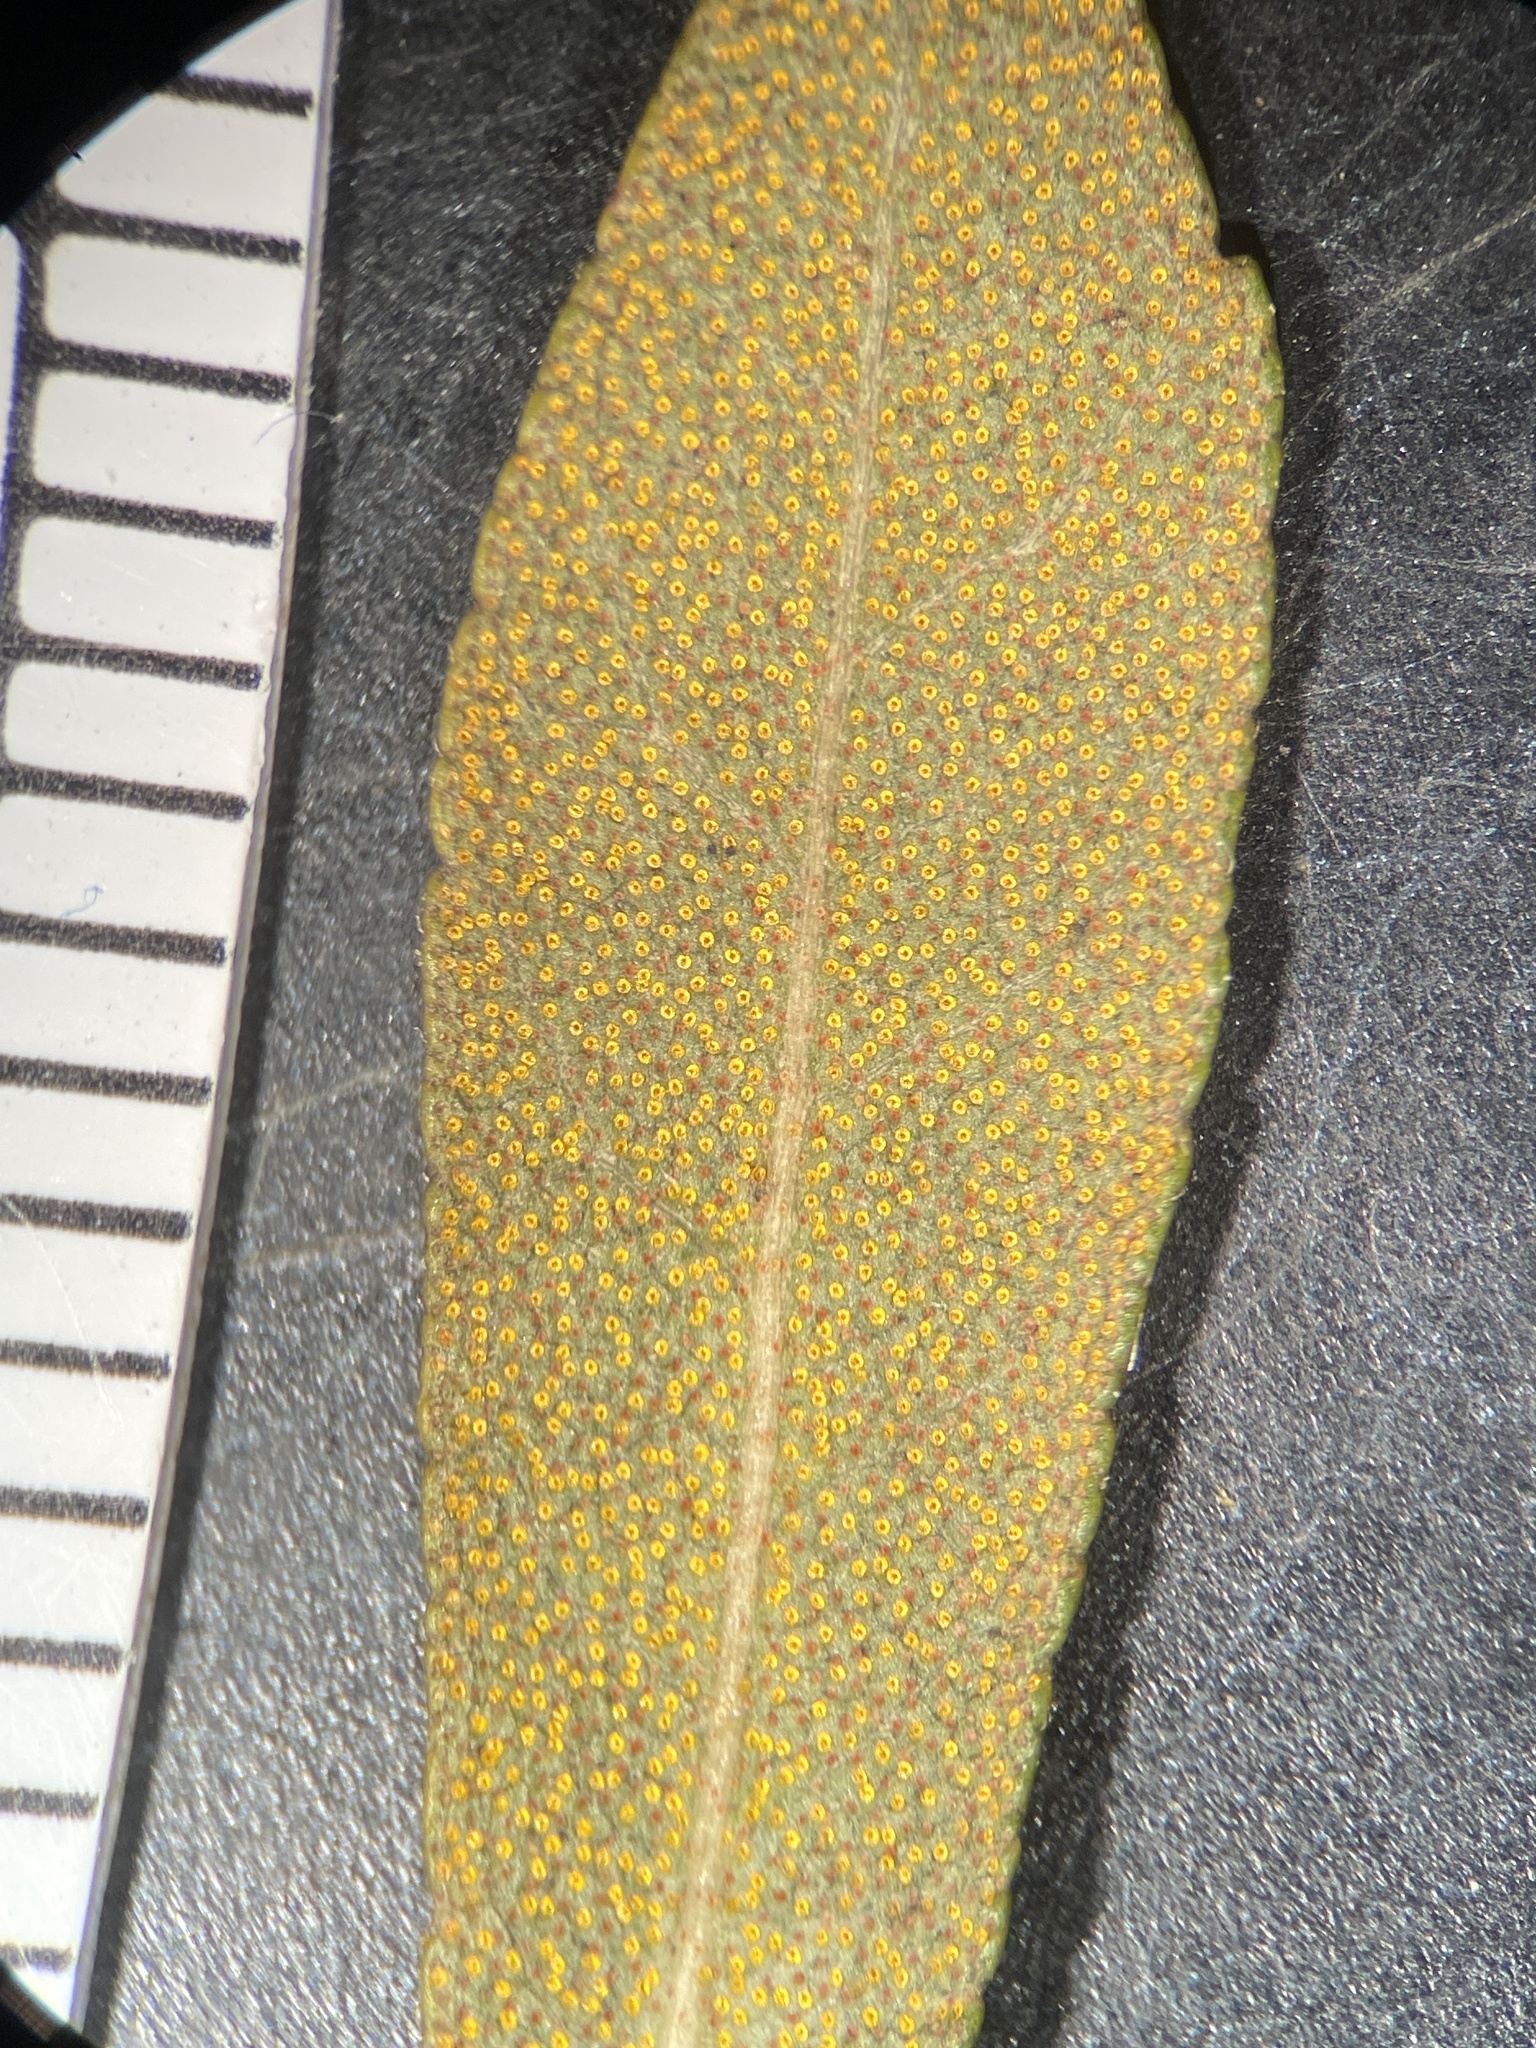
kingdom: Plantae
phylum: Tracheophyta
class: Magnoliopsida
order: Fagales
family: Myricaceae
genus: Morella
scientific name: Morella cerifera
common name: Wax myrtle
